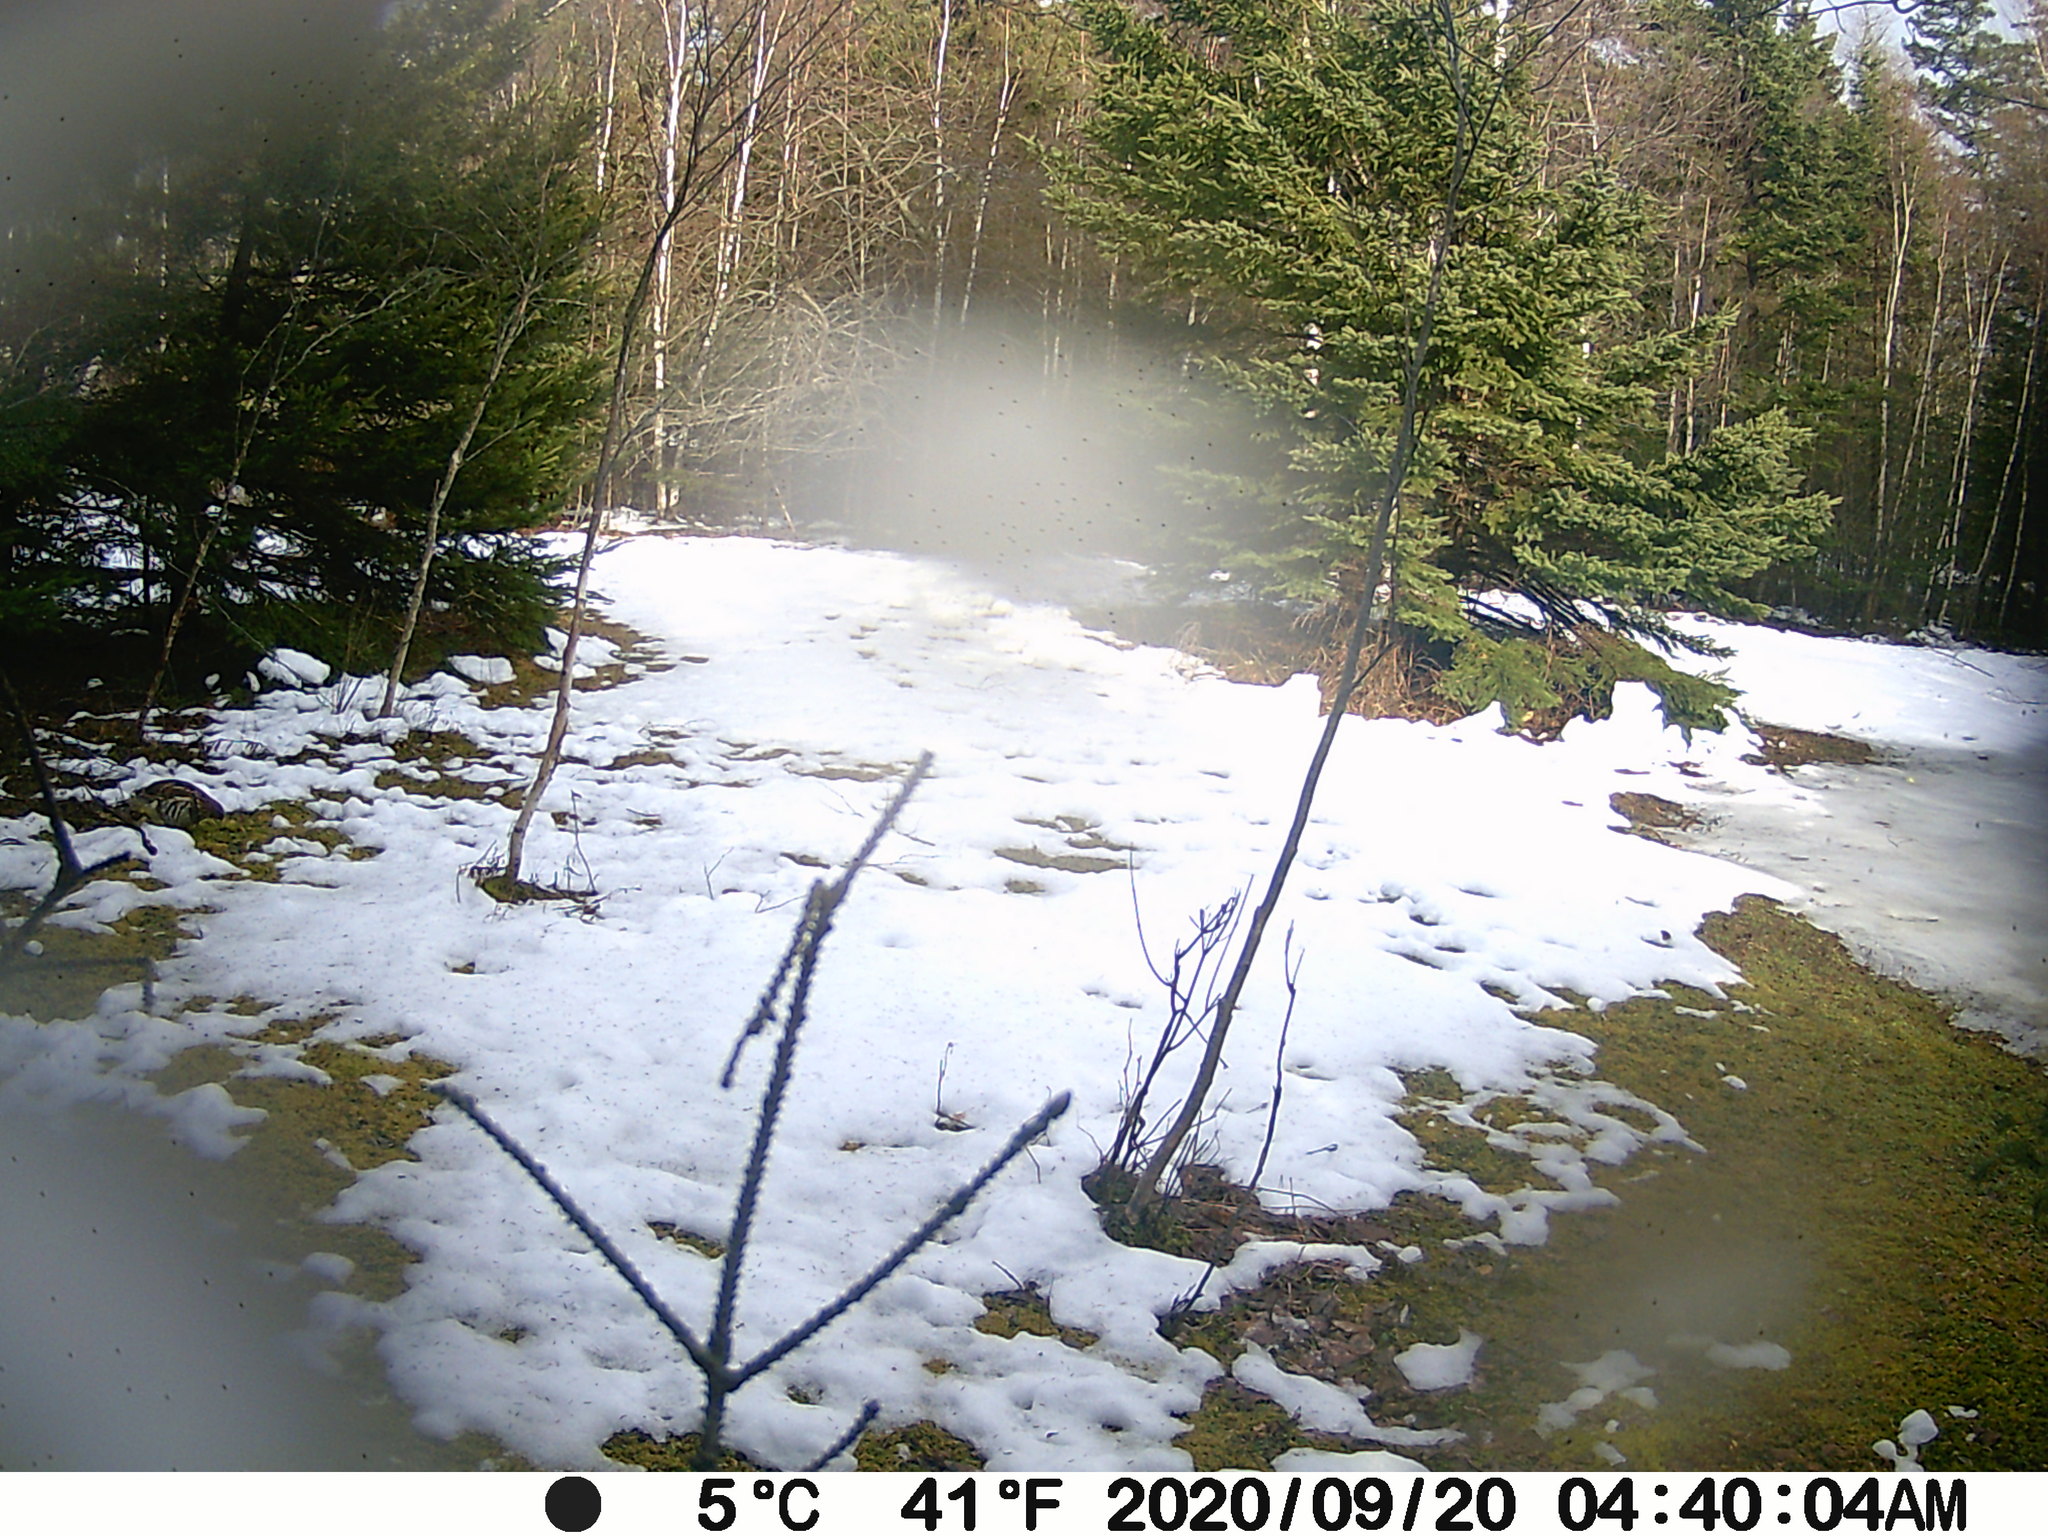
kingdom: Animalia
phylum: Chordata
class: Aves
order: Galliformes
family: Phasianidae
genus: Bonasa
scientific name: Bonasa umbellus
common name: Ruffed grouse
